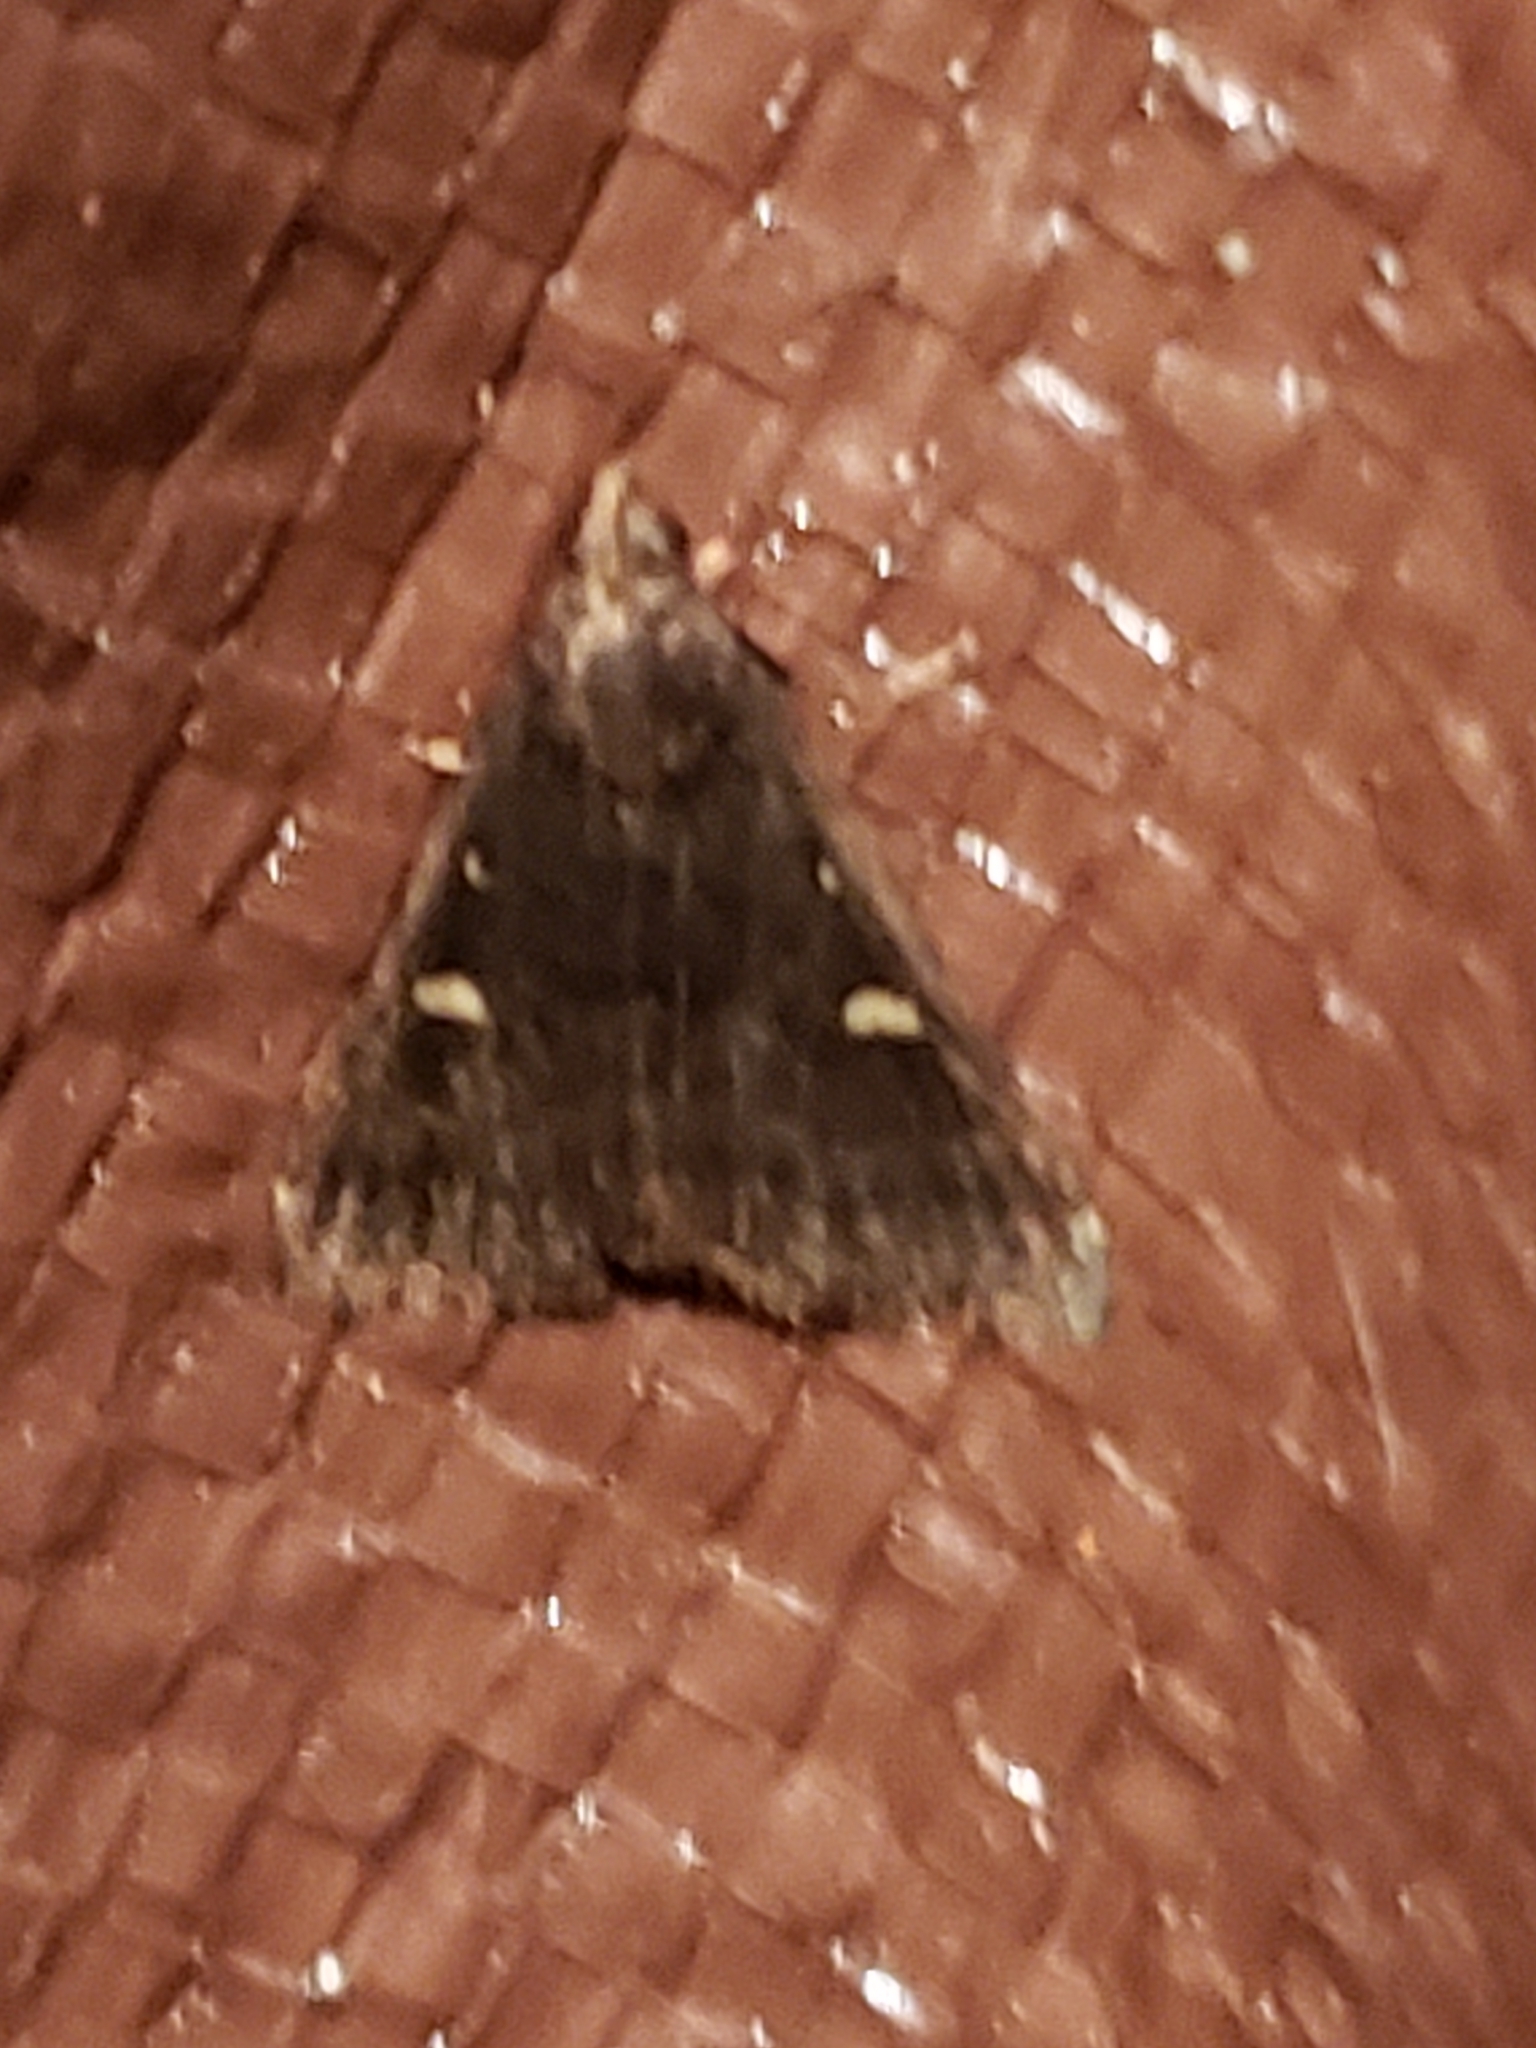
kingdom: Animalia
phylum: Arthropoda
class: Insecta
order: Lepidoptera
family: Erebidae
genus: Tetanolita
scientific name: Tetanolita mynesalis
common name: Smoky tetanolita moth
